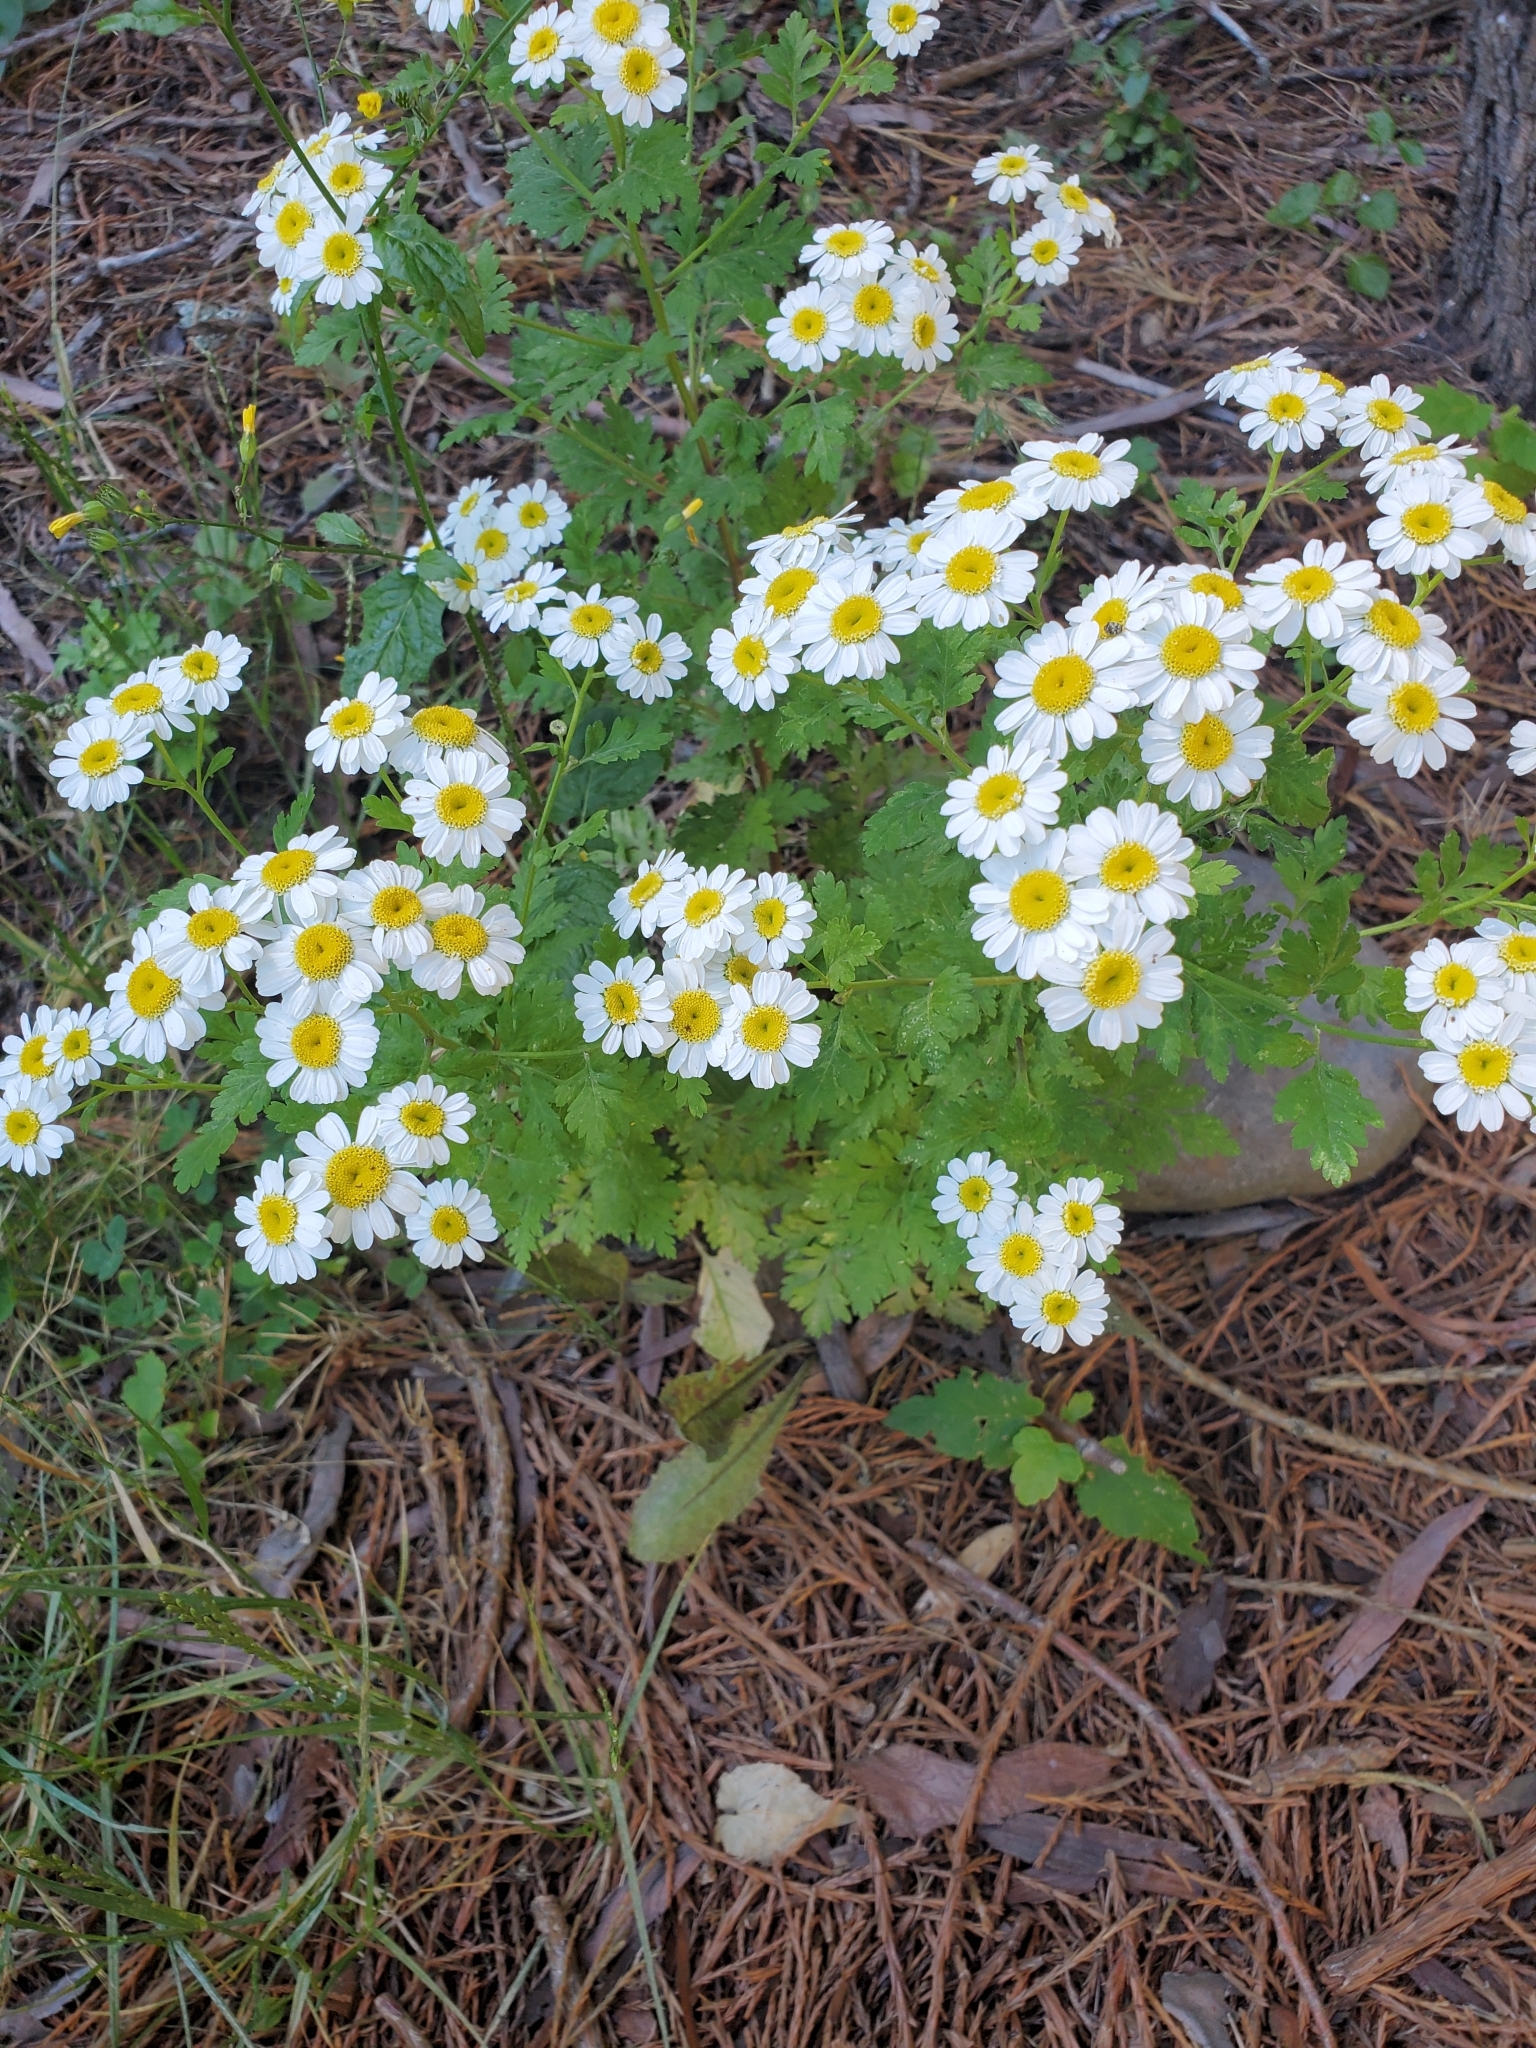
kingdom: Plantae
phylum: Tracheophyta
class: Magnoliopsida
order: Asterales
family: Asteraceae
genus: Tanacetum
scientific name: Tanacetum parthenium
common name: Feverfew
